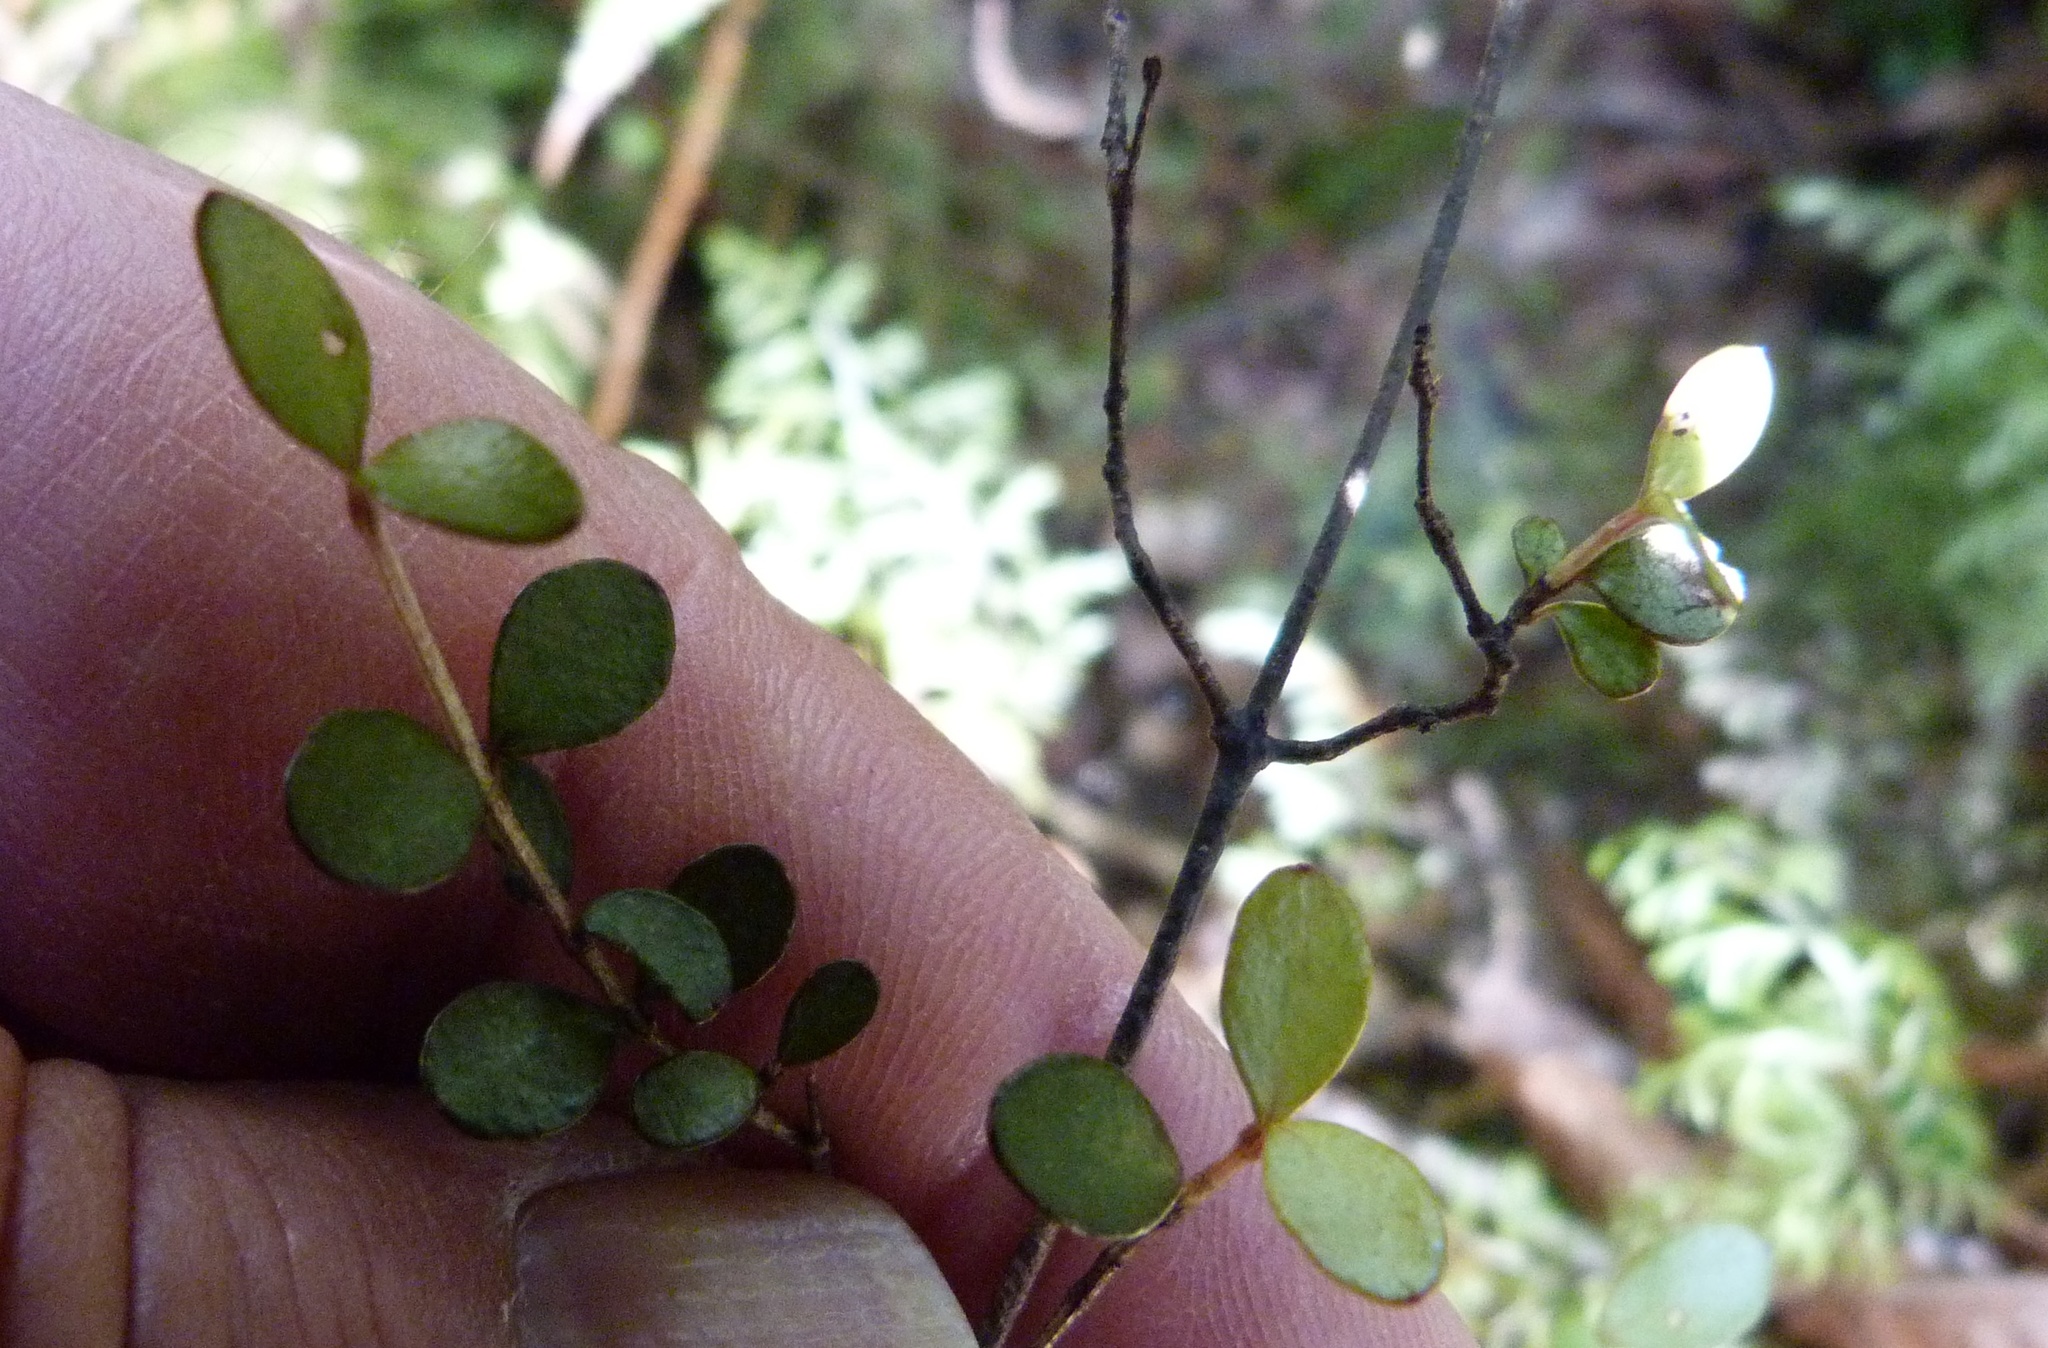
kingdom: Plantae
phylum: Tracheophyta
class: Magnoliopsida
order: Myrtales
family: Myrtaceae
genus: Neomyrtus
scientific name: Neomyrtus pedunculata
